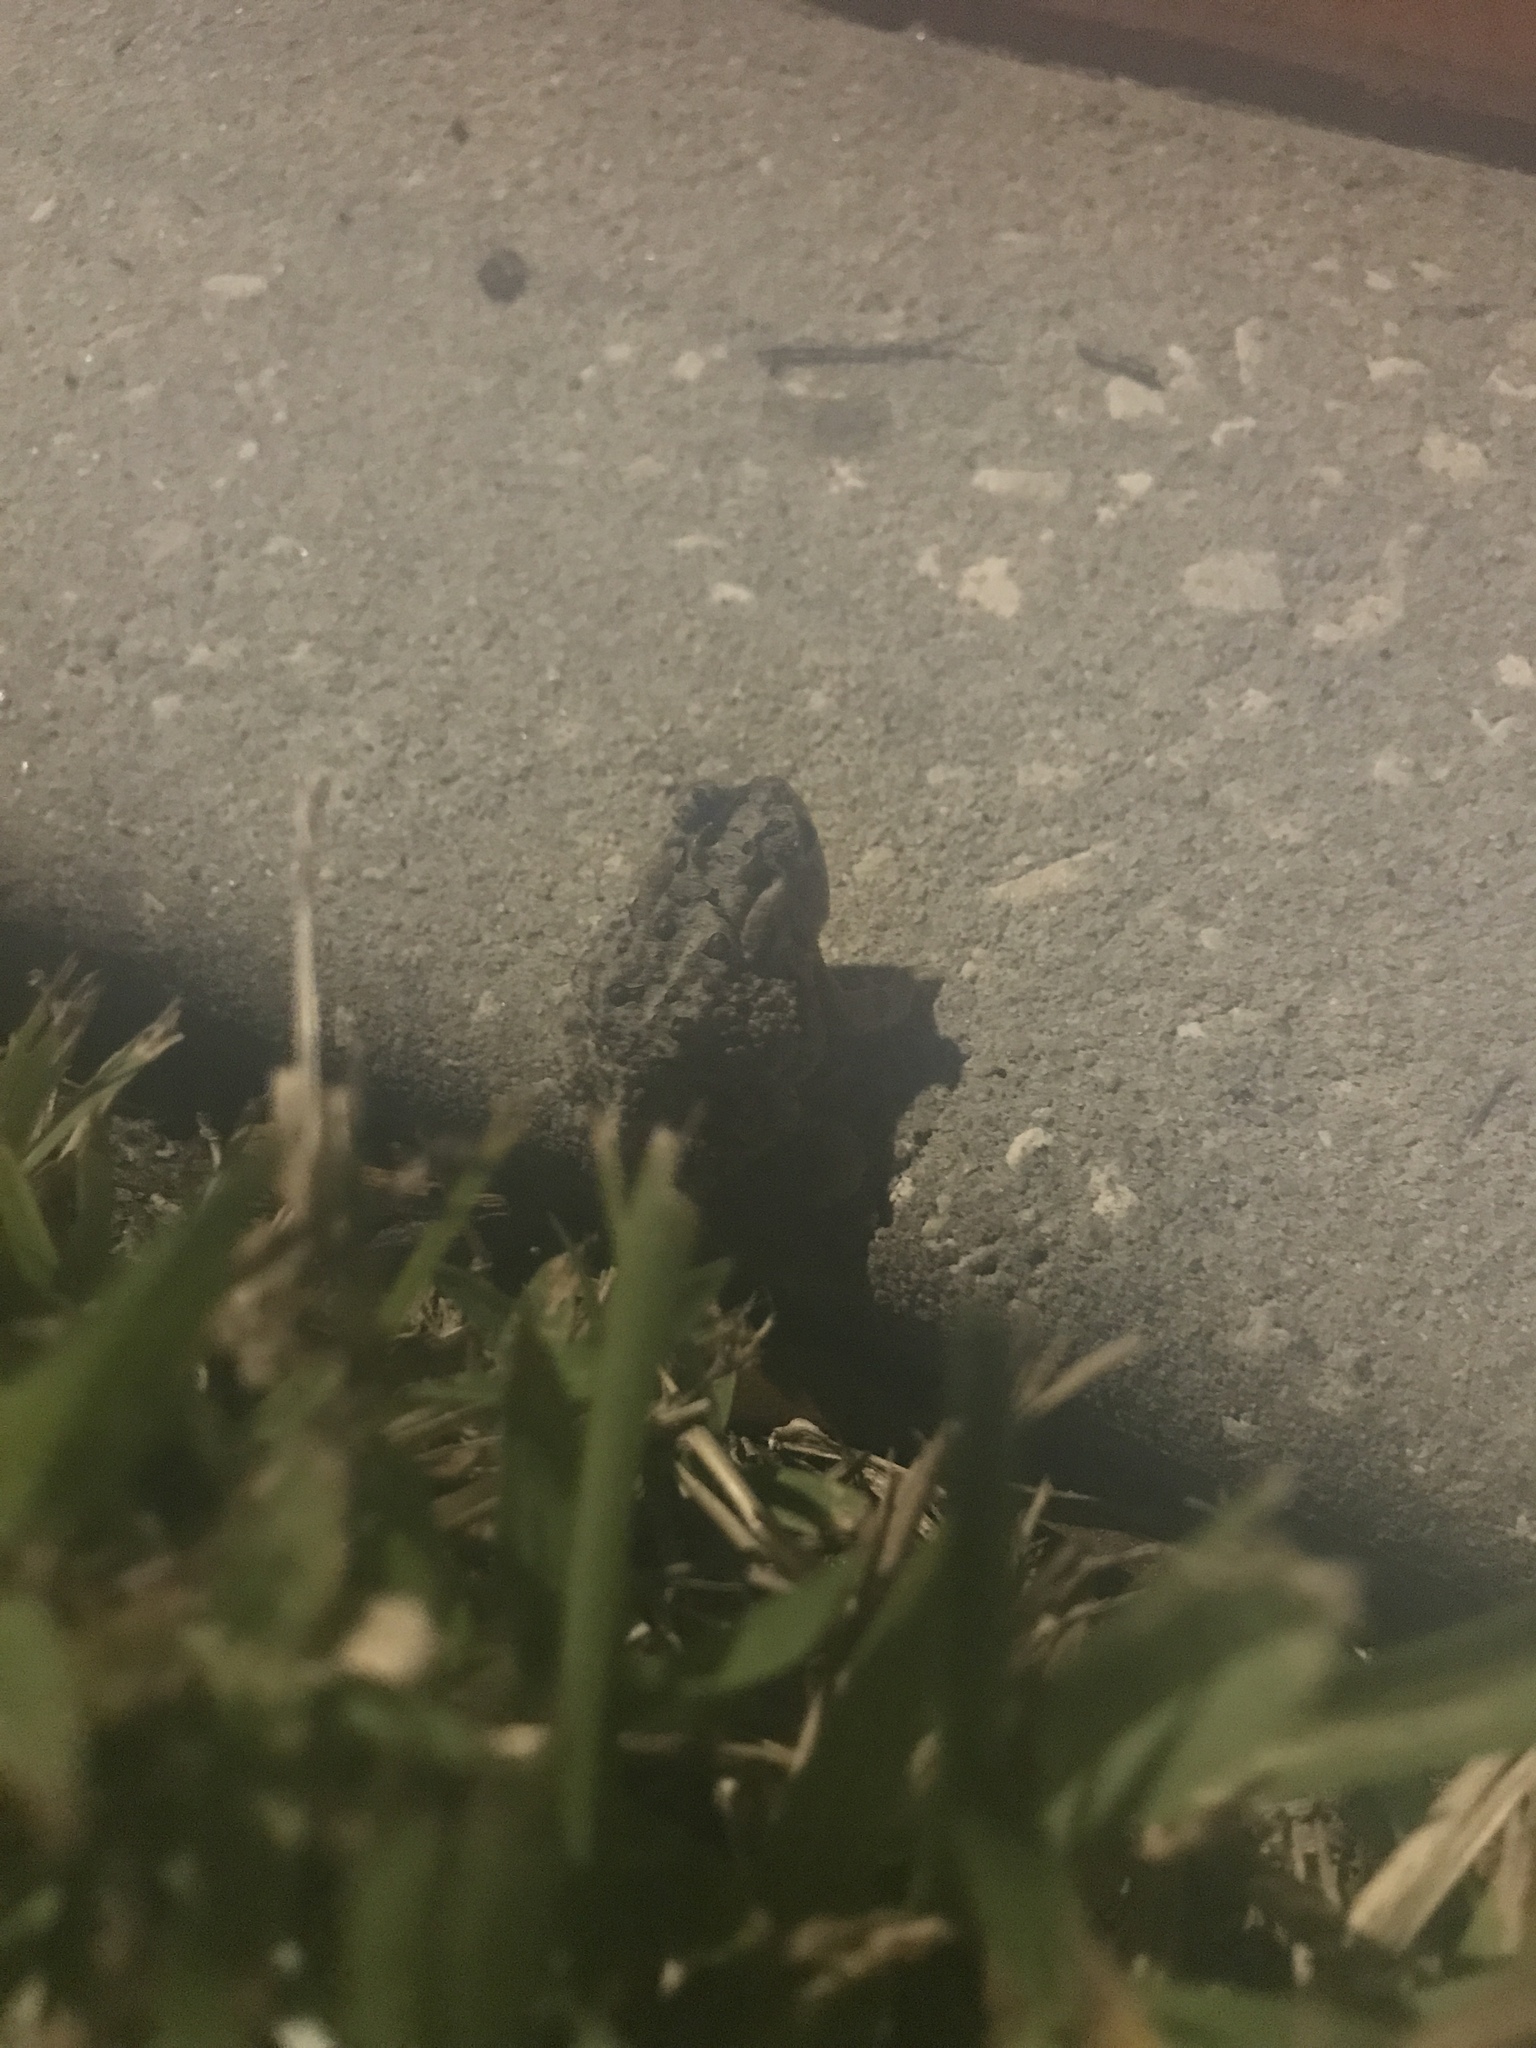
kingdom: Animalia
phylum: Chordata
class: Amphibia
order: Anura
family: Bufonidae
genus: Anaxyrus
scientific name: Anaxyrus terrestris
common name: Southern toad
